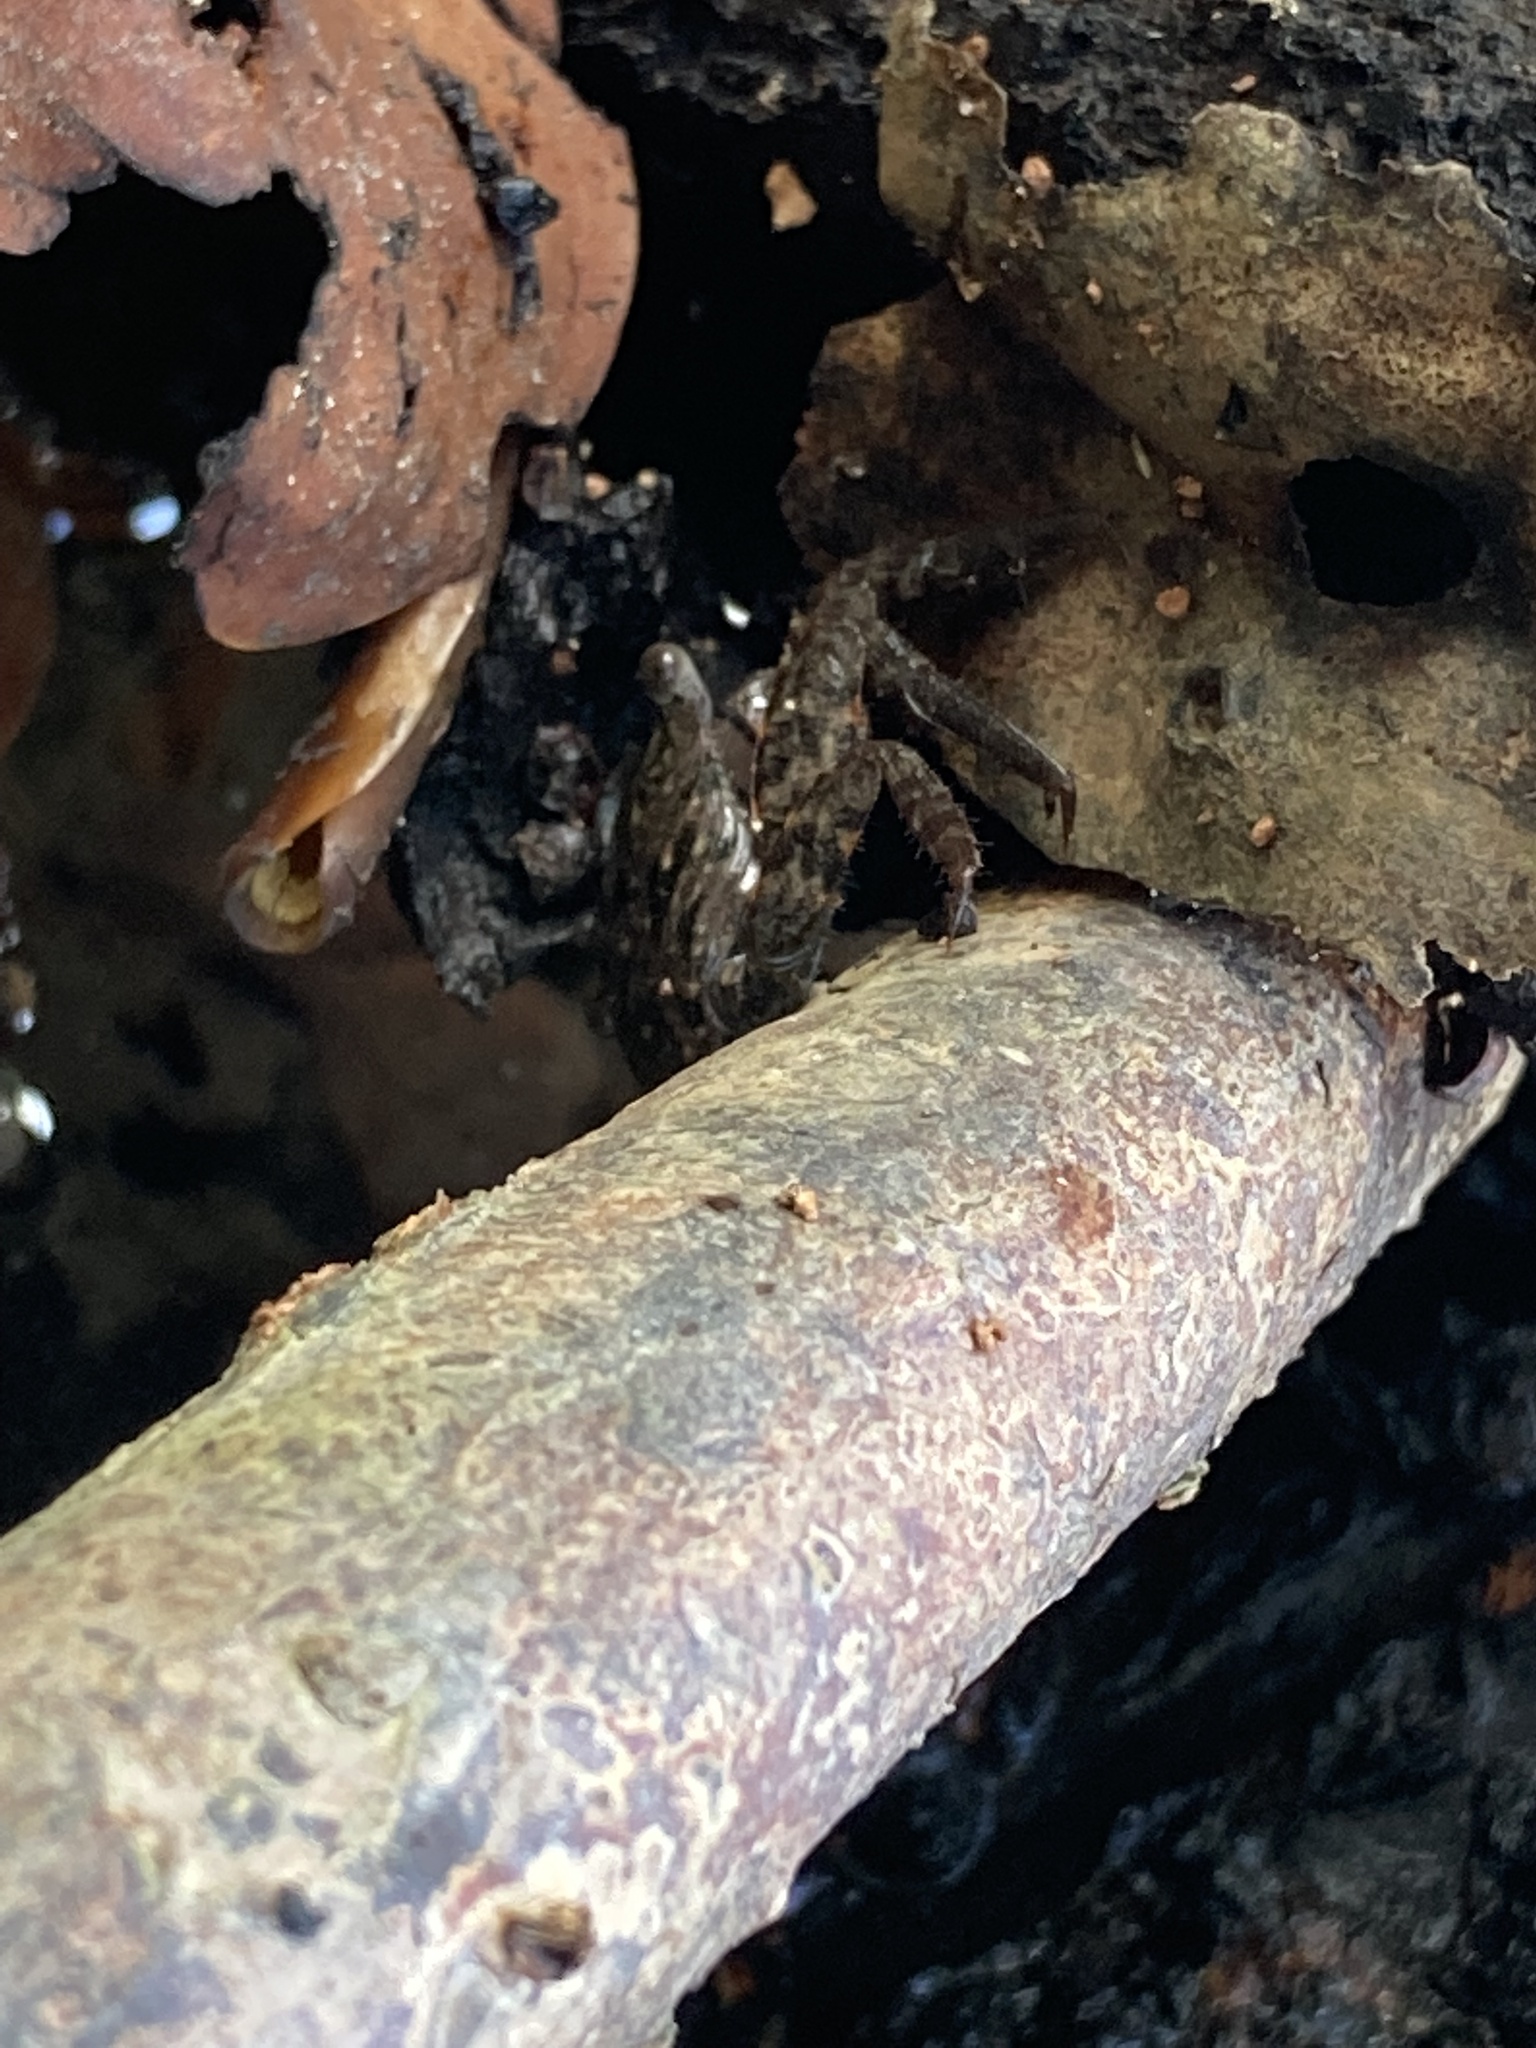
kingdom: Animalia
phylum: Arthropoda
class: Malacostraca
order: Decapoda
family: Sesarmidae
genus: Aratus
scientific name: Aratus pisonii
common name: Mangrove crab
